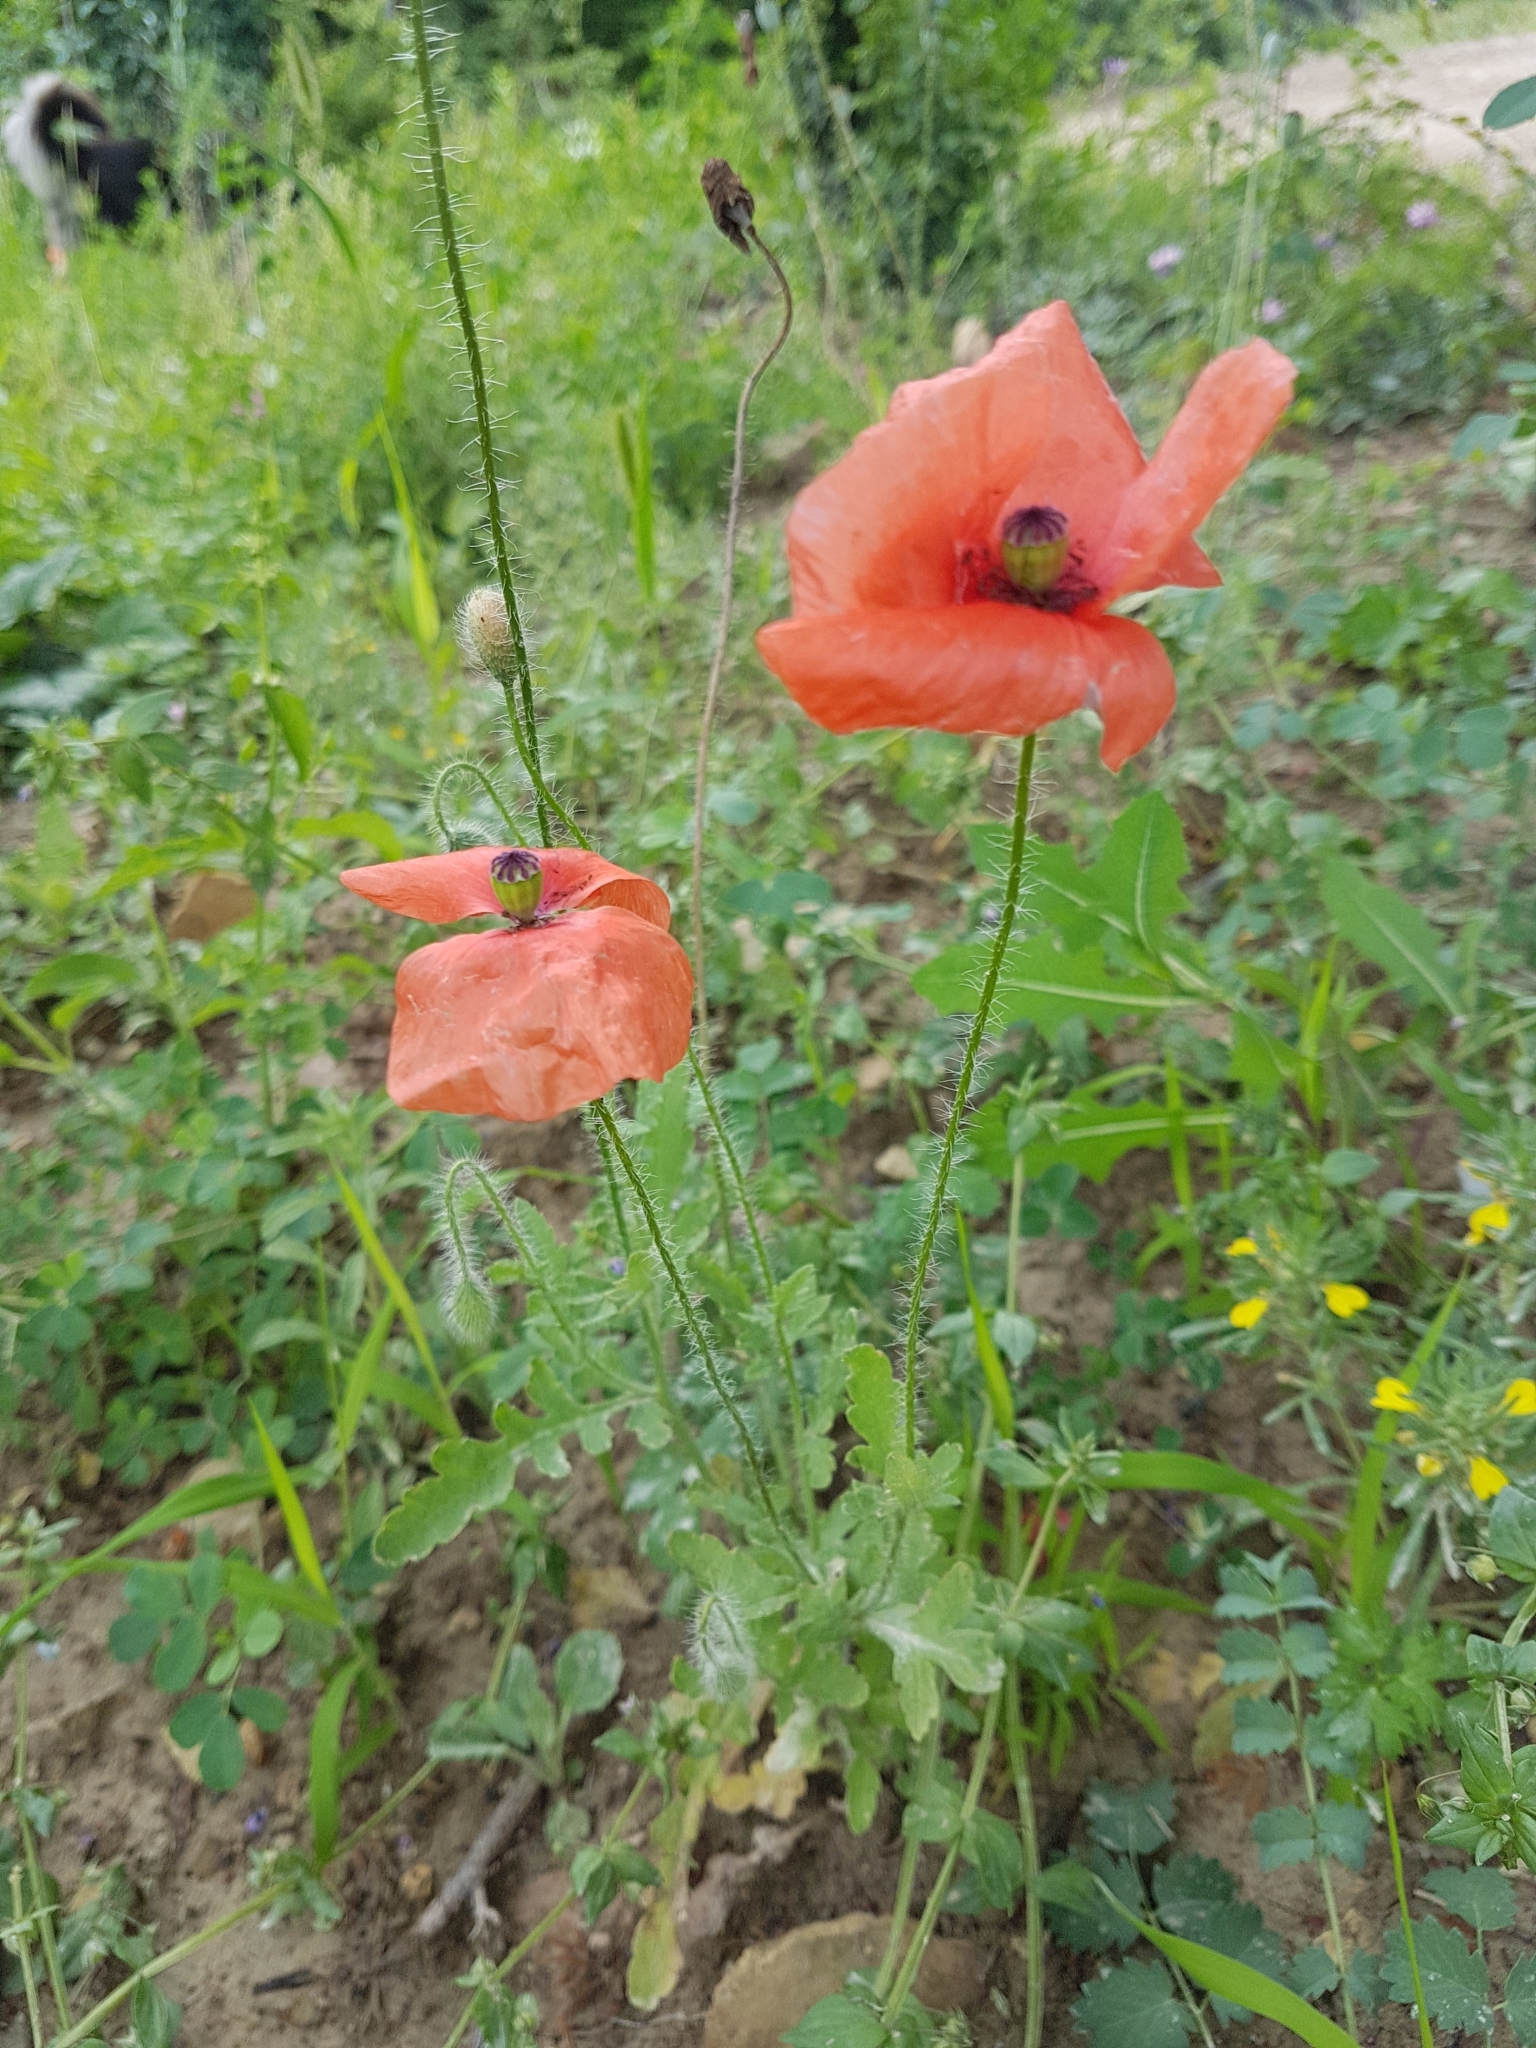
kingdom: Plantae
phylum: Tracheophyta
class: Magnoliopsida
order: Ranunculales
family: Papaveraceae
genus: Papaver
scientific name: Papaver rhoeas
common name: Corn poppy
